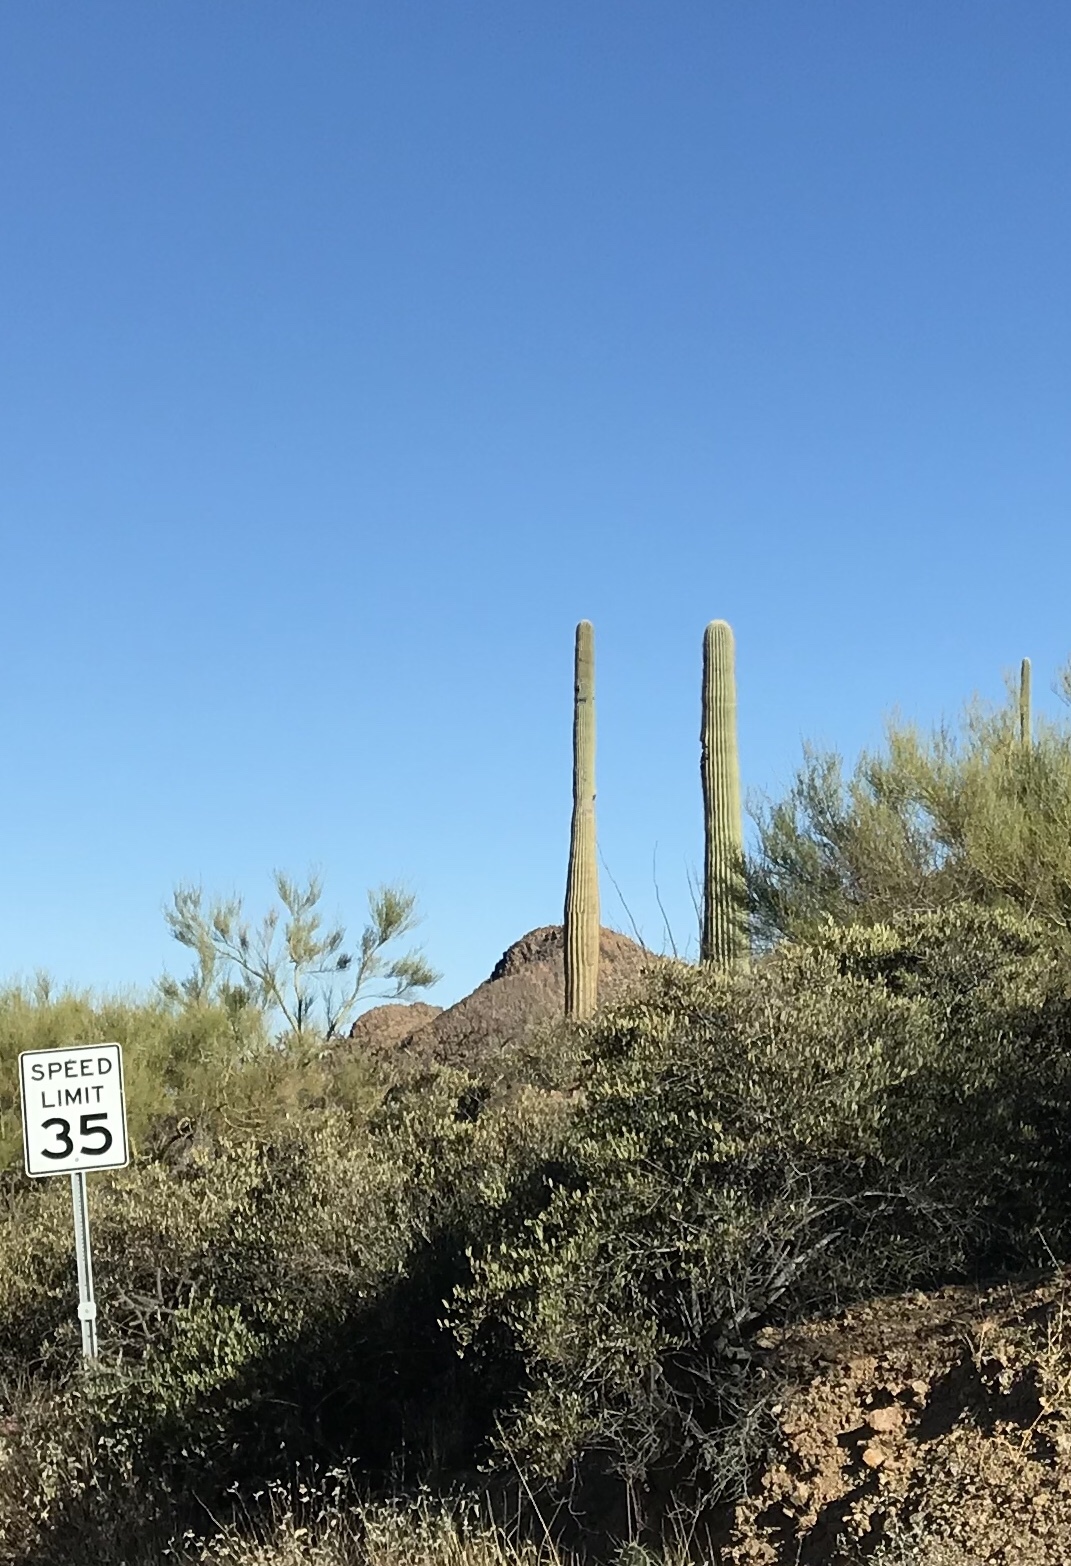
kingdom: Plantae
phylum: Tracheophyta
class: Magnoliopsida
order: Caryophyllales
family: Cactaceae
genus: Carnegiea
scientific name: Carnegiea gigantea
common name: Saguaro
